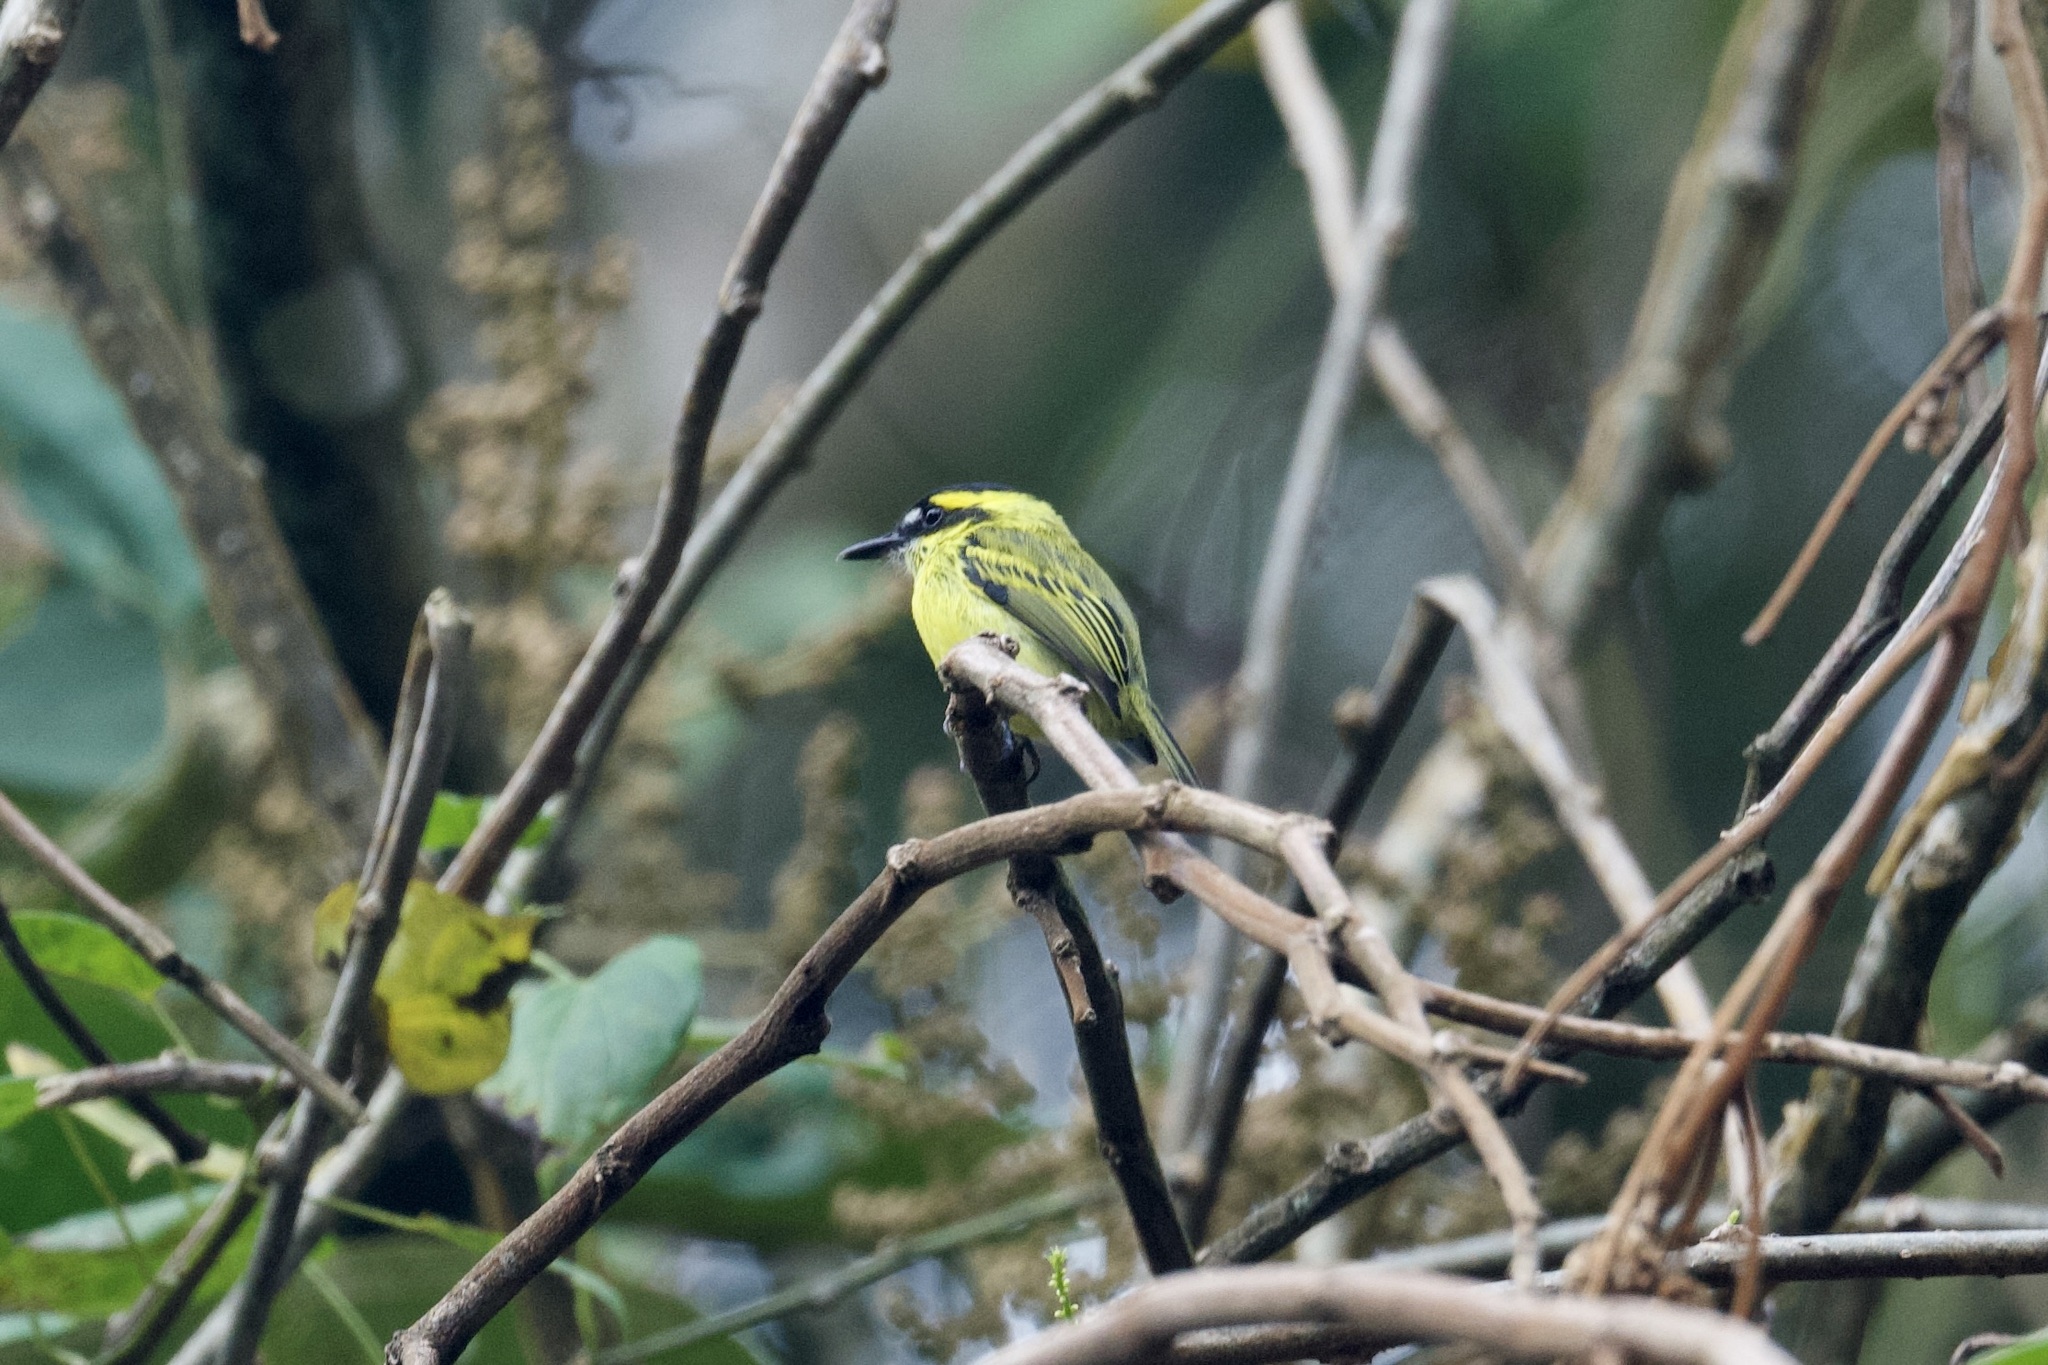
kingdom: Animalia
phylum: Chordata
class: Aves
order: Passeriformes
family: Tyrannidae
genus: Todirostrum
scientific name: Todirostrum chrysocrotaphum
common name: Yellow-browed tody-flycatcher
